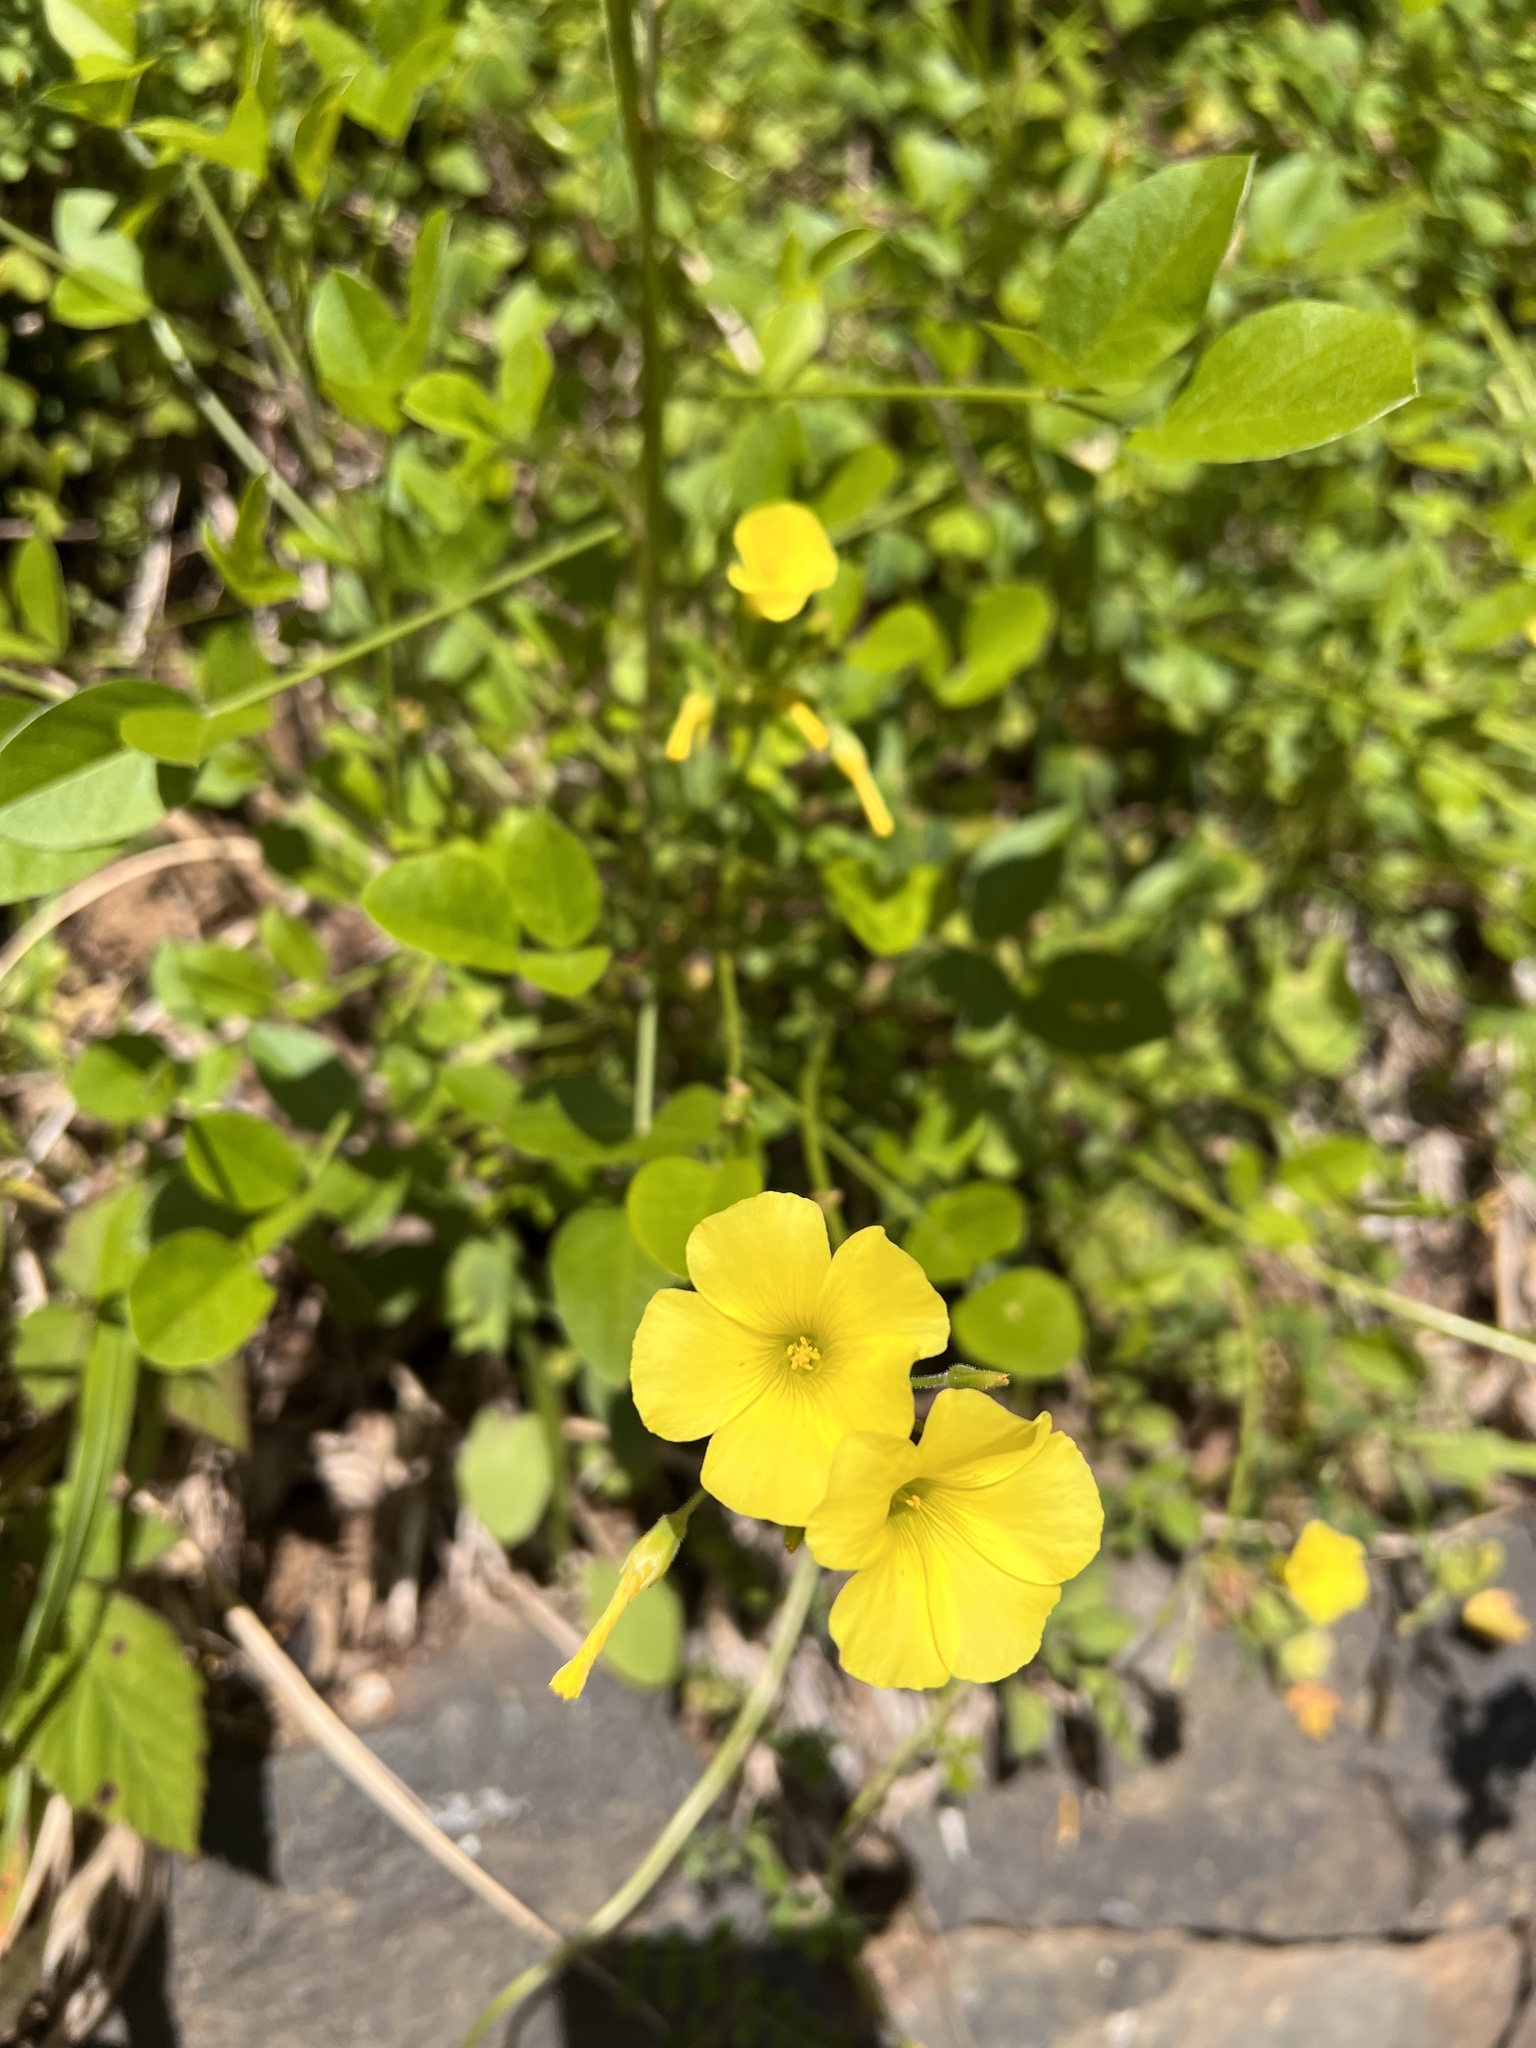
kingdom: Plantae
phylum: Tracheophyta
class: Magnoliopsida
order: Oxalidales
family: Oxalidaceae
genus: Oxalis
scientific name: Oxalis pes-caprae
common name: Bermuda-buttercup
